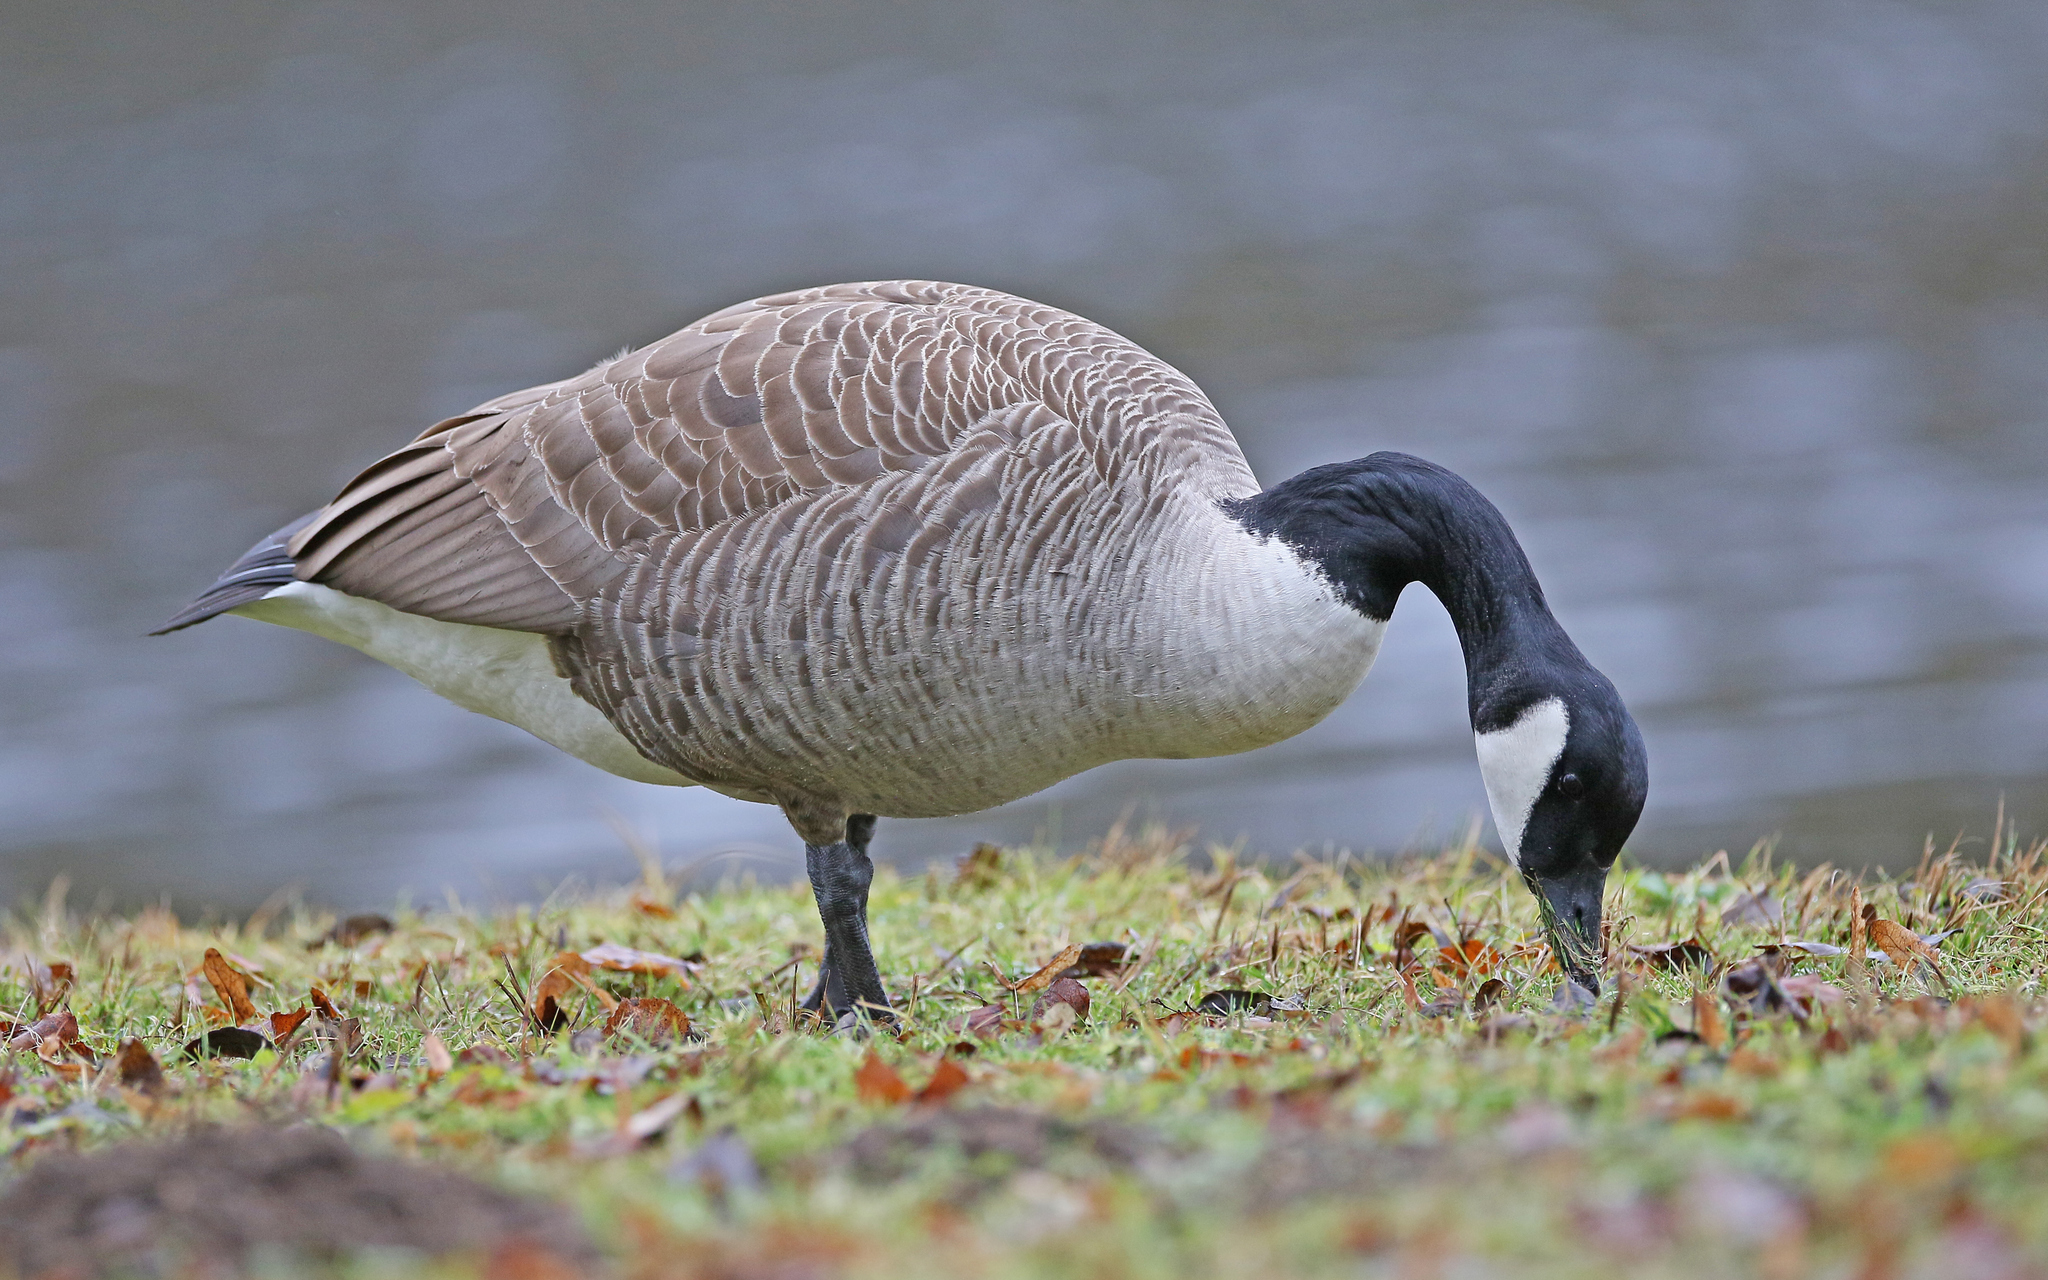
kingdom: Animalia
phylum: Chordata
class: Aves
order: Anseriformes
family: Anatidae
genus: Branta
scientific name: Branta canadensis
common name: Canada goose
